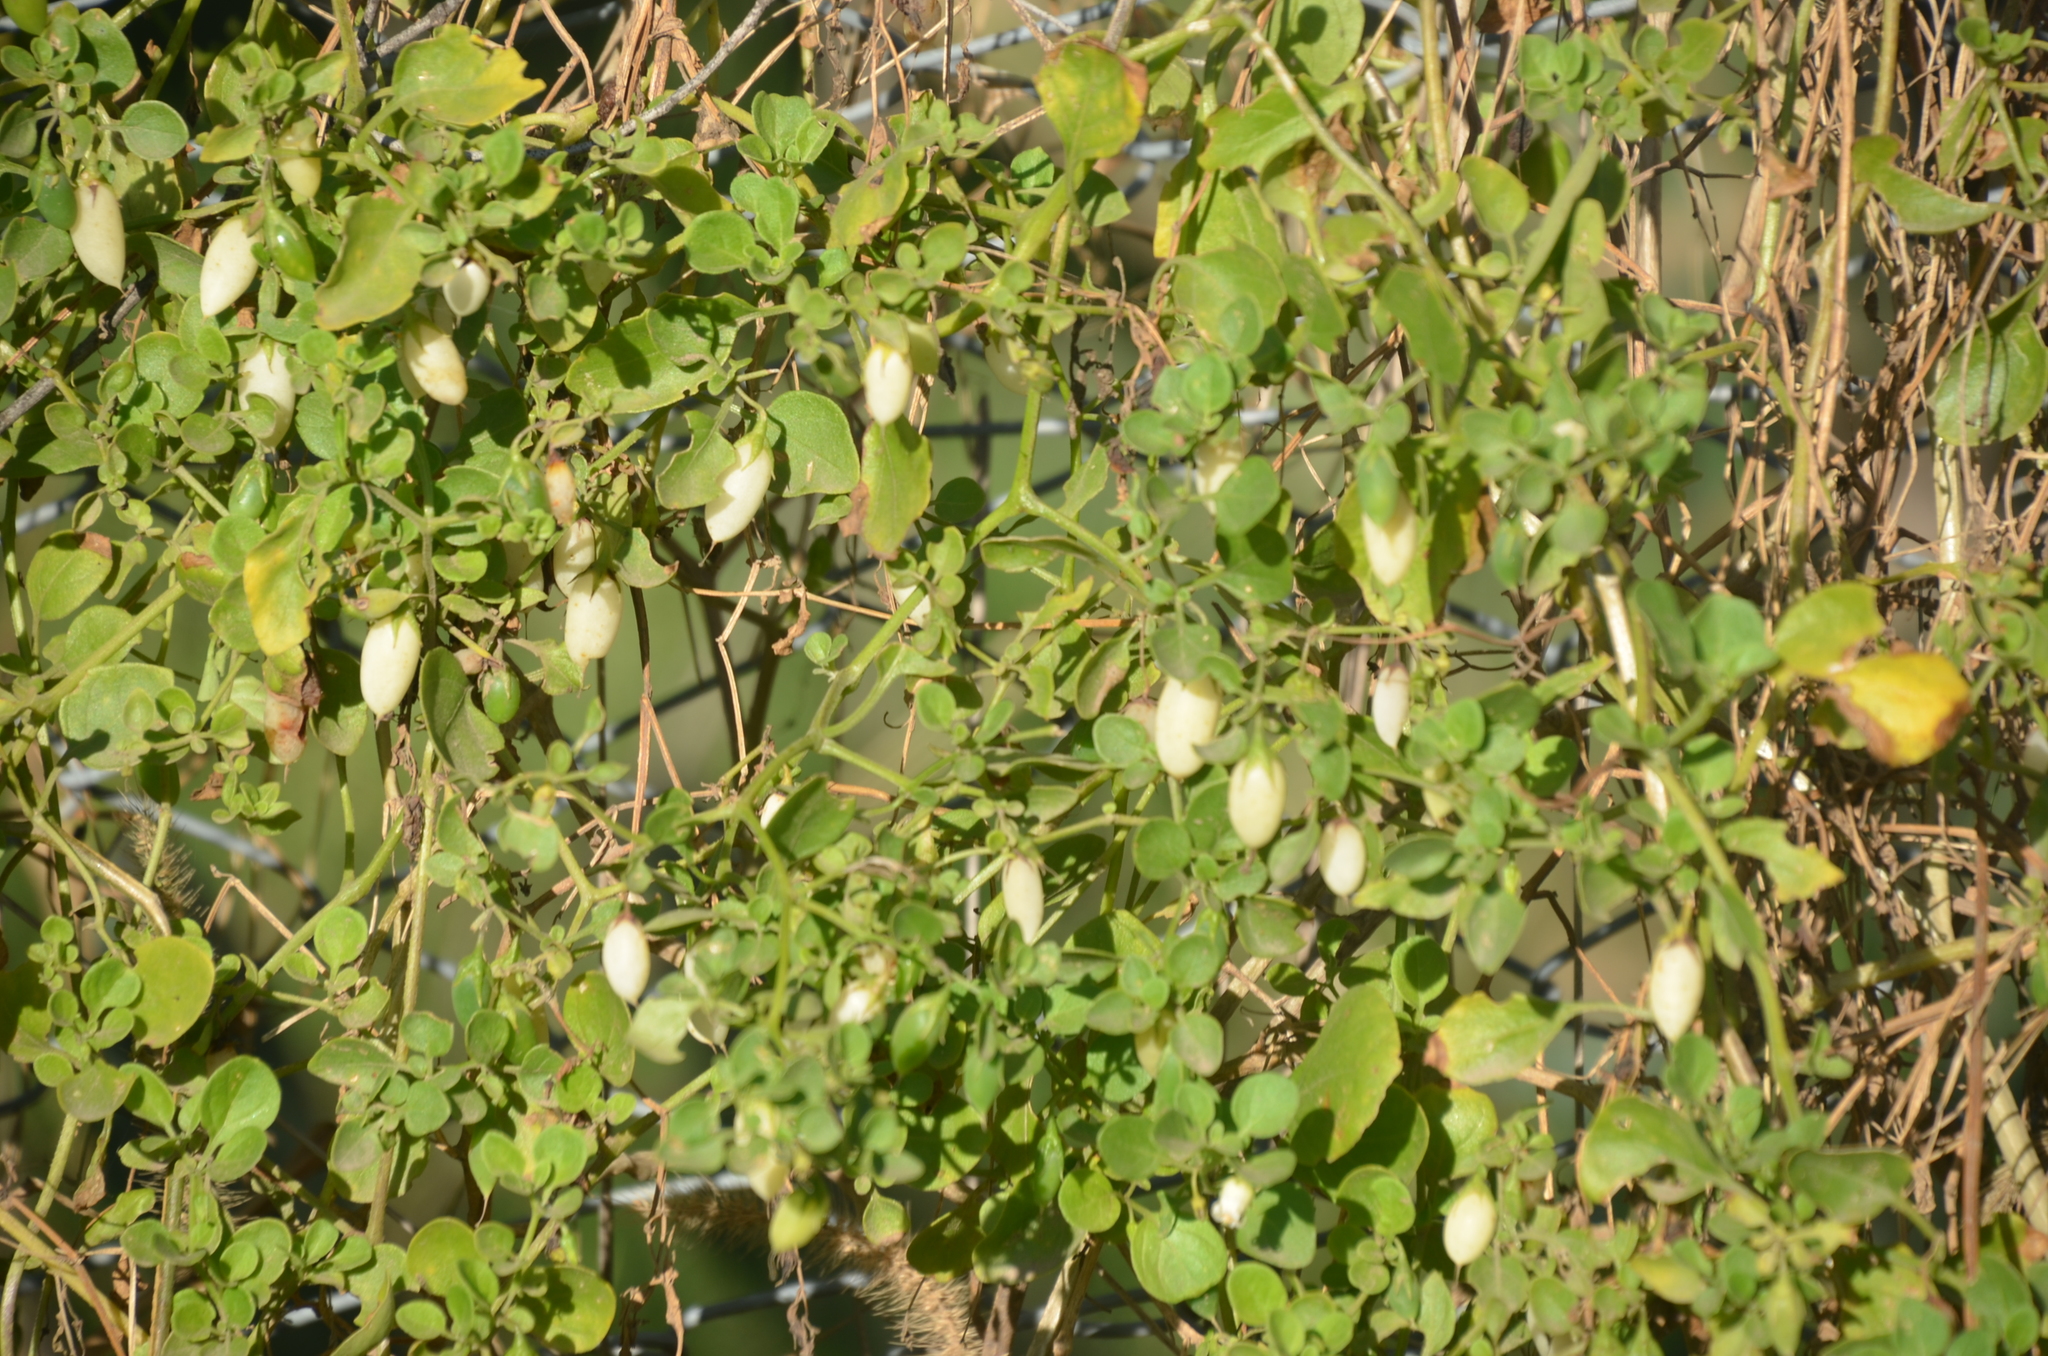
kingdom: Plantae
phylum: Tracheophyta
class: Magnoliopsida
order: Solanales
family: Solanaceae
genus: Salpichroa
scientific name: Salpichroa origanifolia
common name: Lily-of-the-valley-vine
